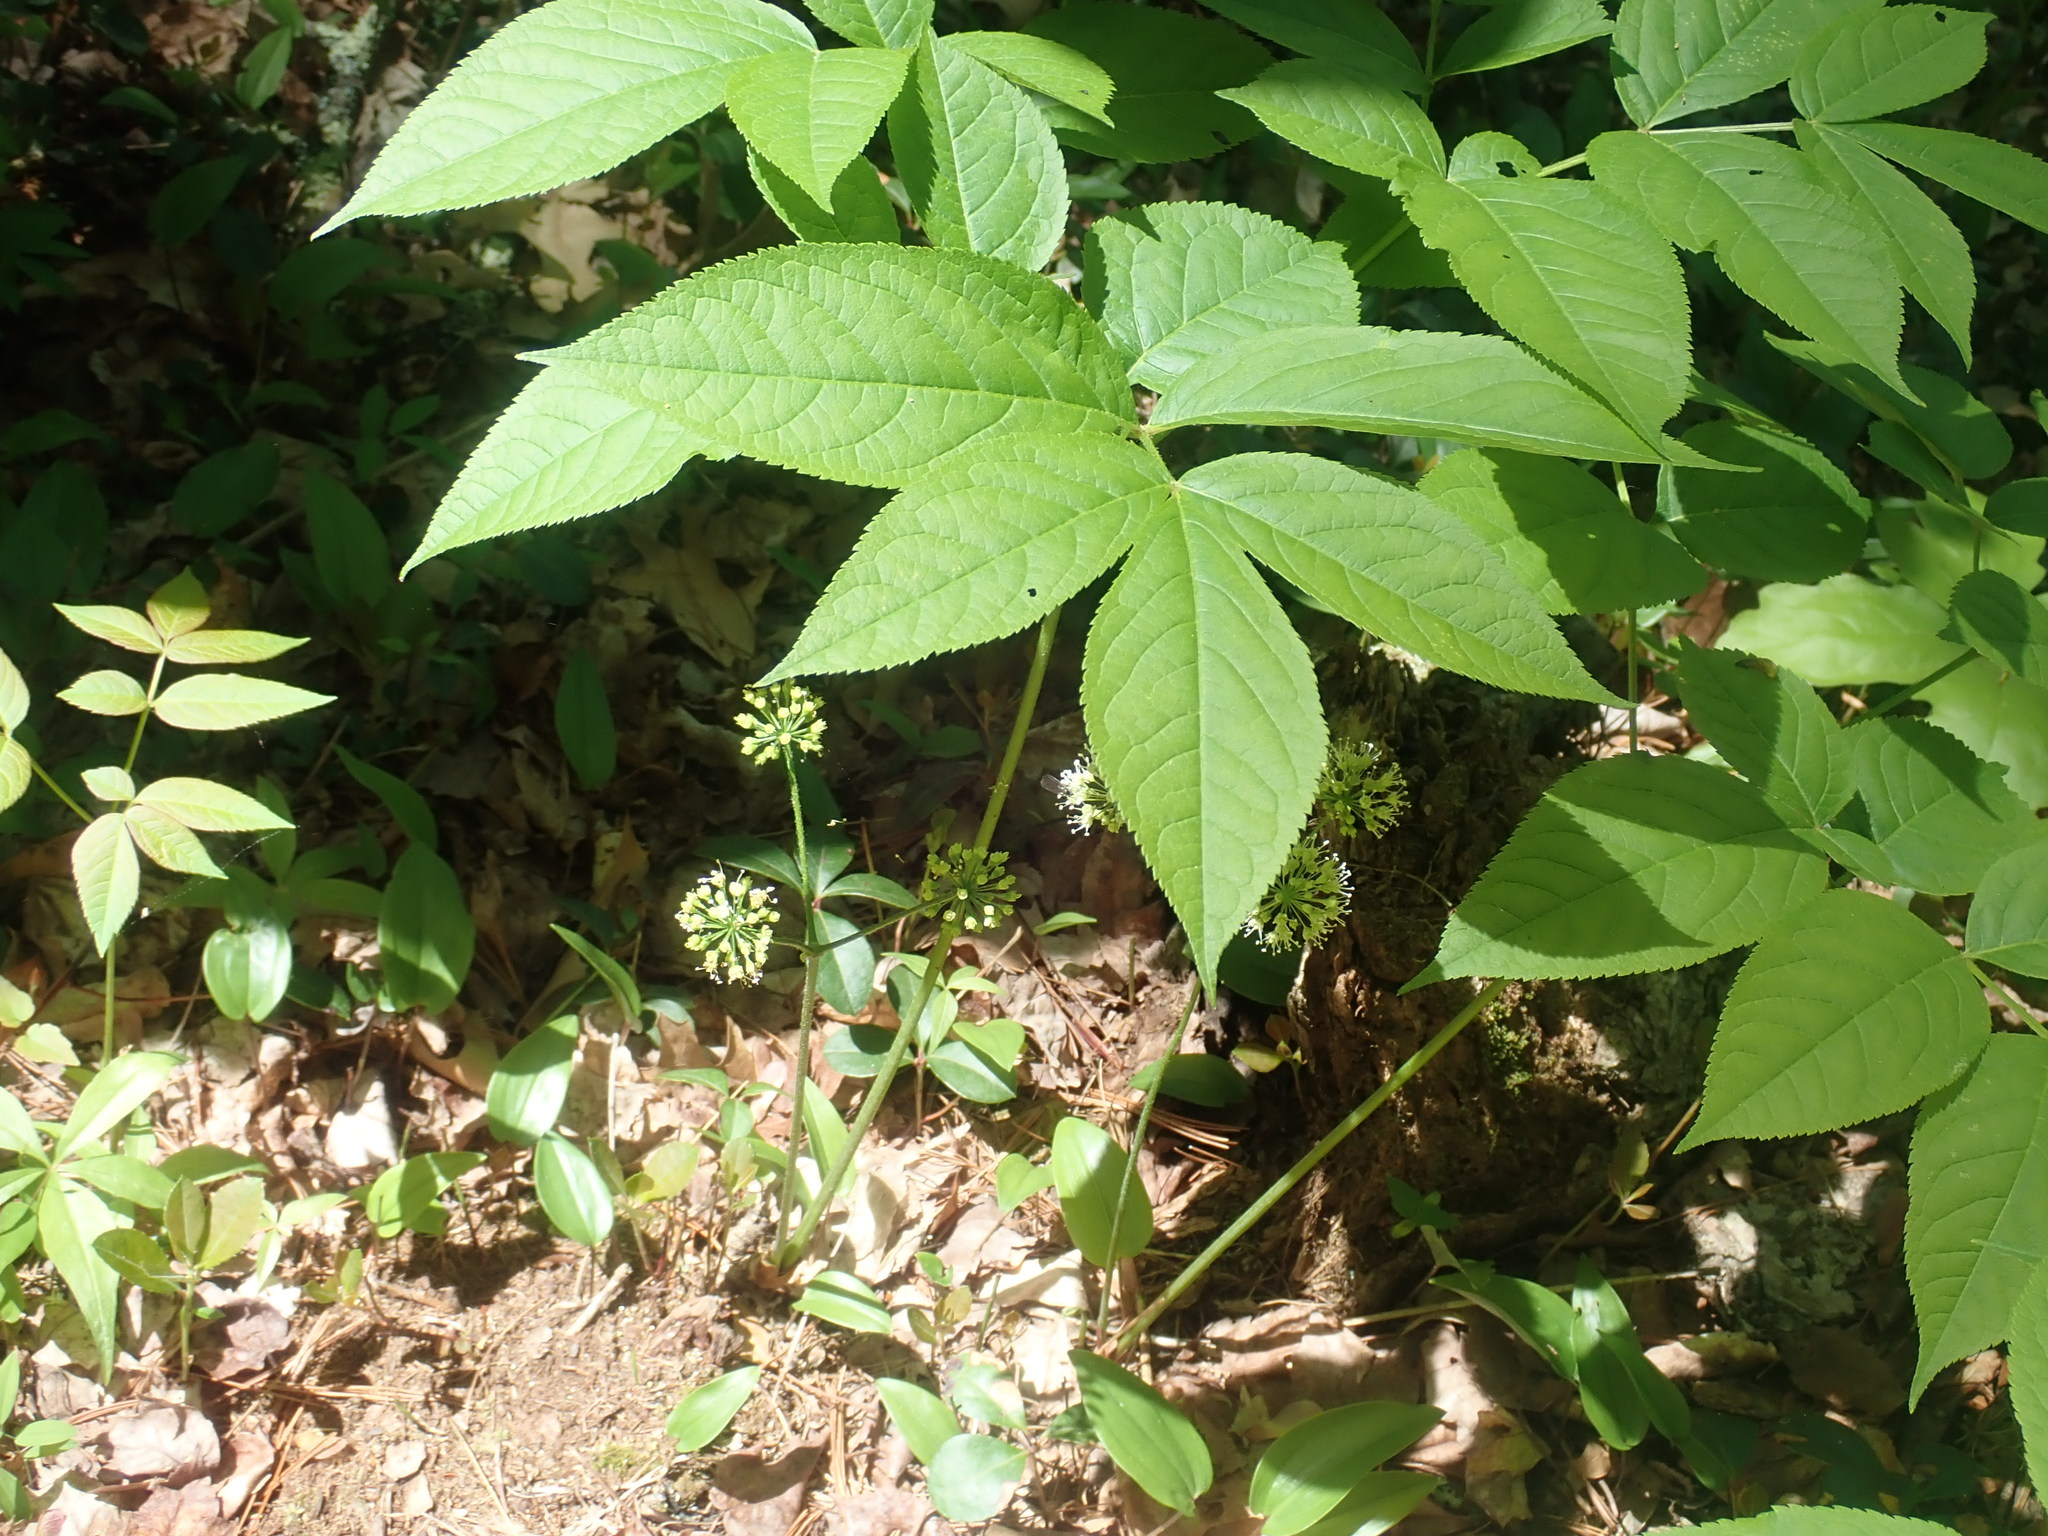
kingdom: Plantae
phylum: Tracheophyta
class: Magnoliopsida
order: Apiales
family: Araliaceae
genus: Aralia
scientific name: Aralia nudicaulis
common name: Wild sarsaparilla
